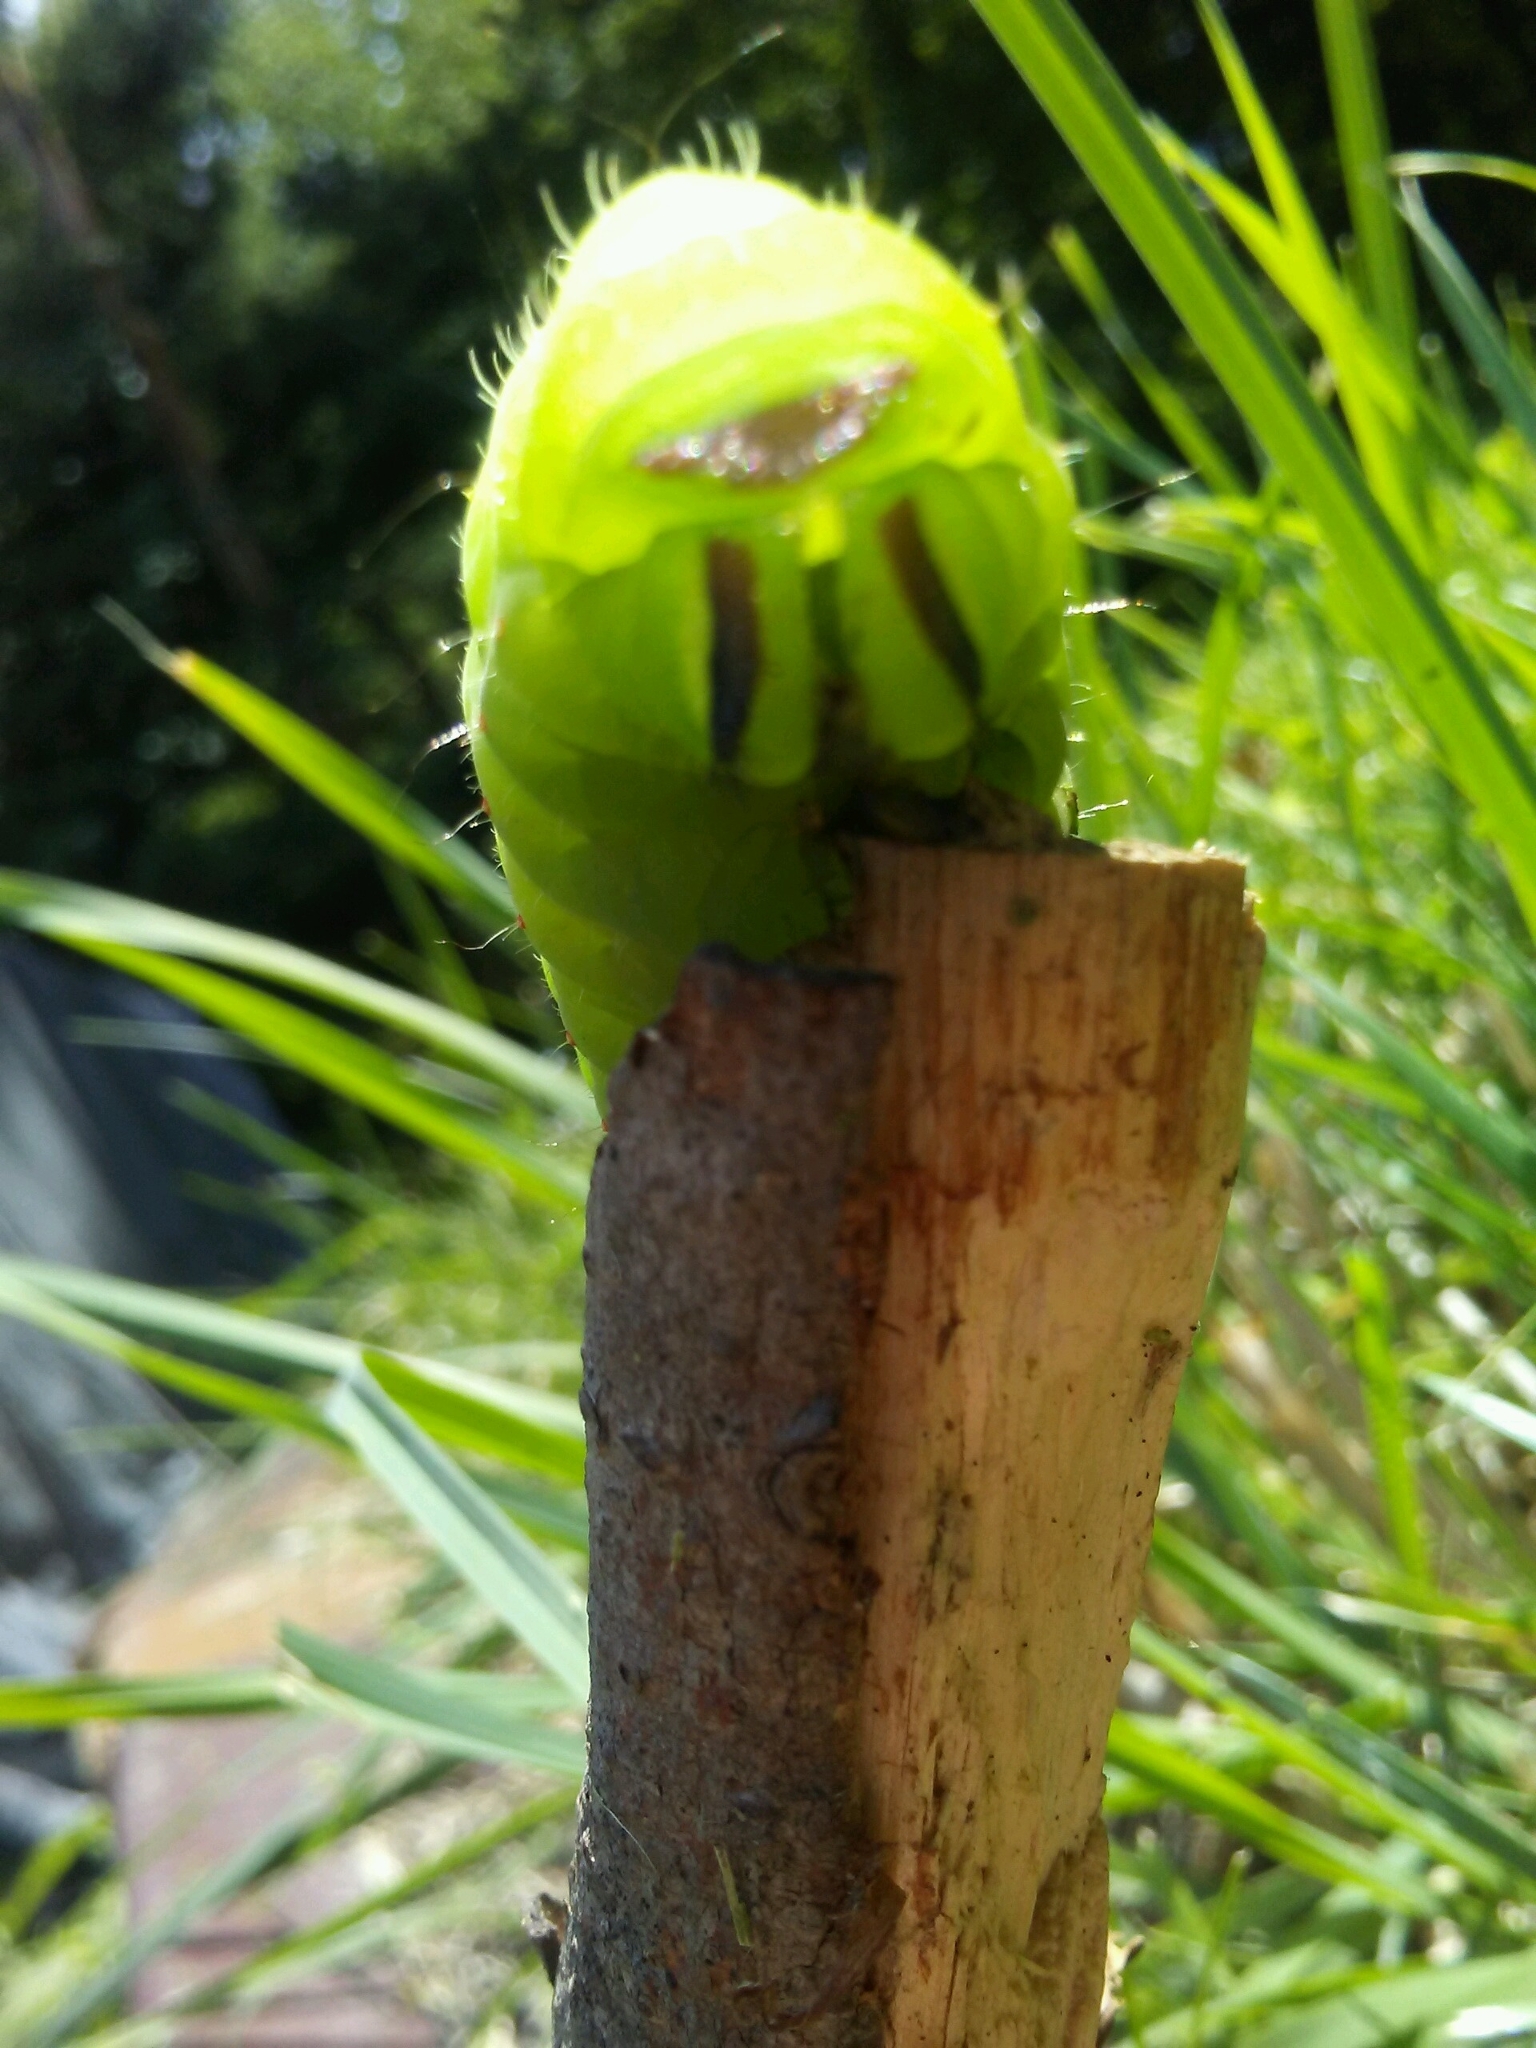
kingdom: Animalia
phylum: Arthropoda
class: Insecta
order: Lepidoptera
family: Saturniidae
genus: Actias
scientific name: Actias luna
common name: Luna moth
